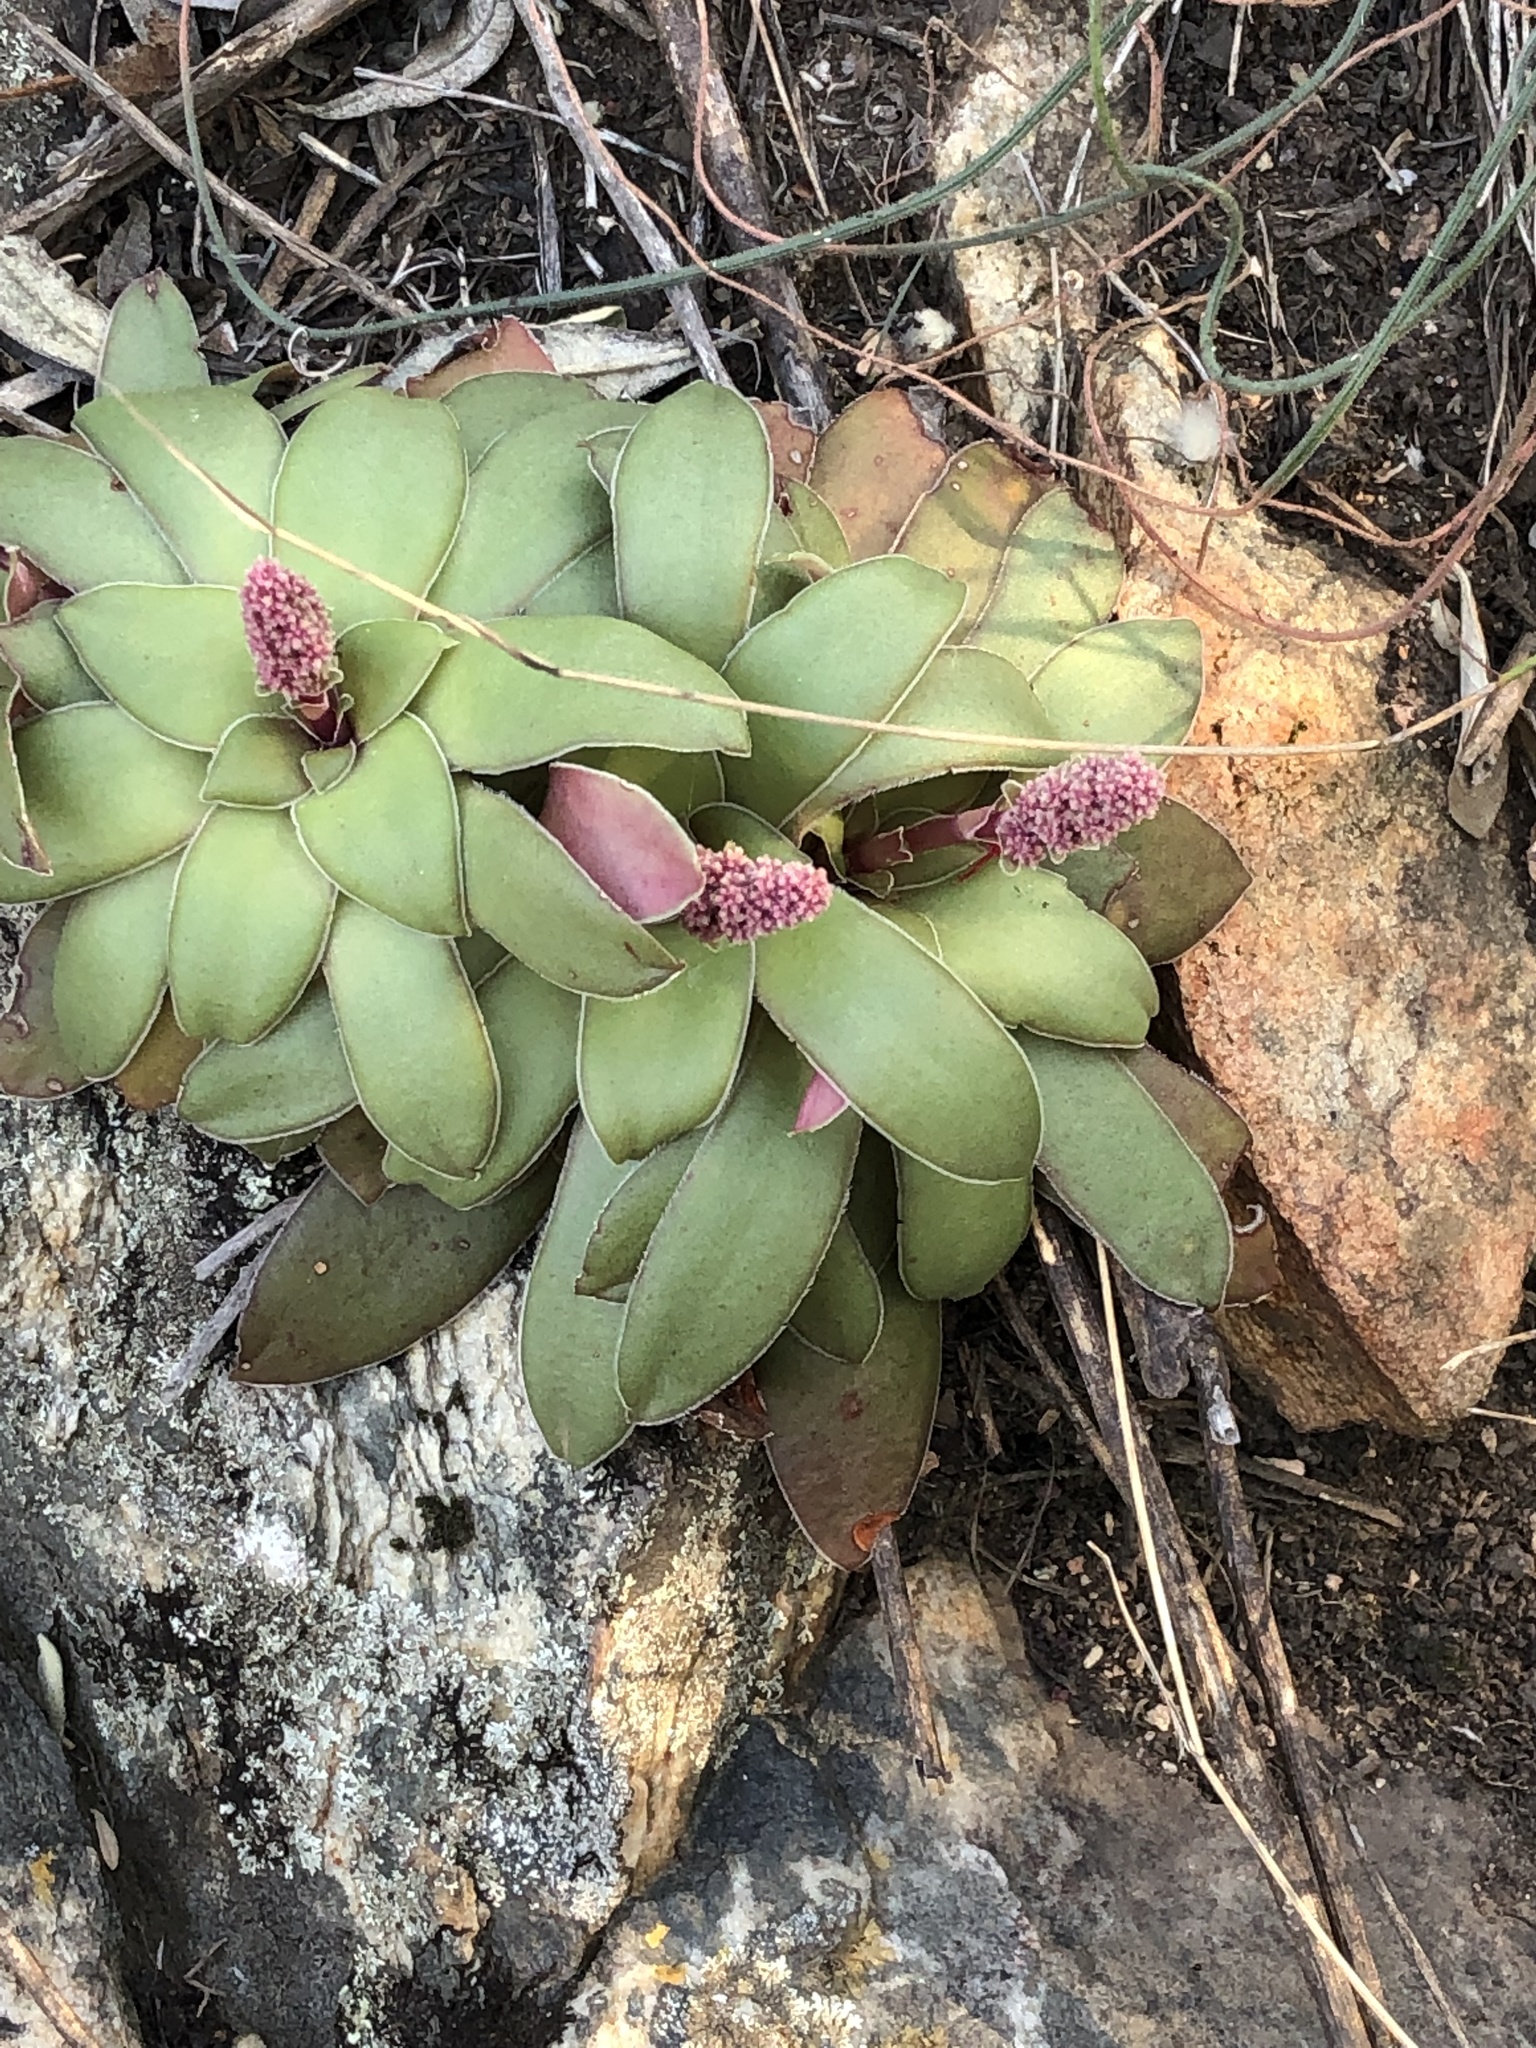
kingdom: Plantae
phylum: Tracheophyta
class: Magnoliopsida
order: Saxifragales
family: Crassulaceae
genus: Crassula
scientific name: Crassula orbicularis
